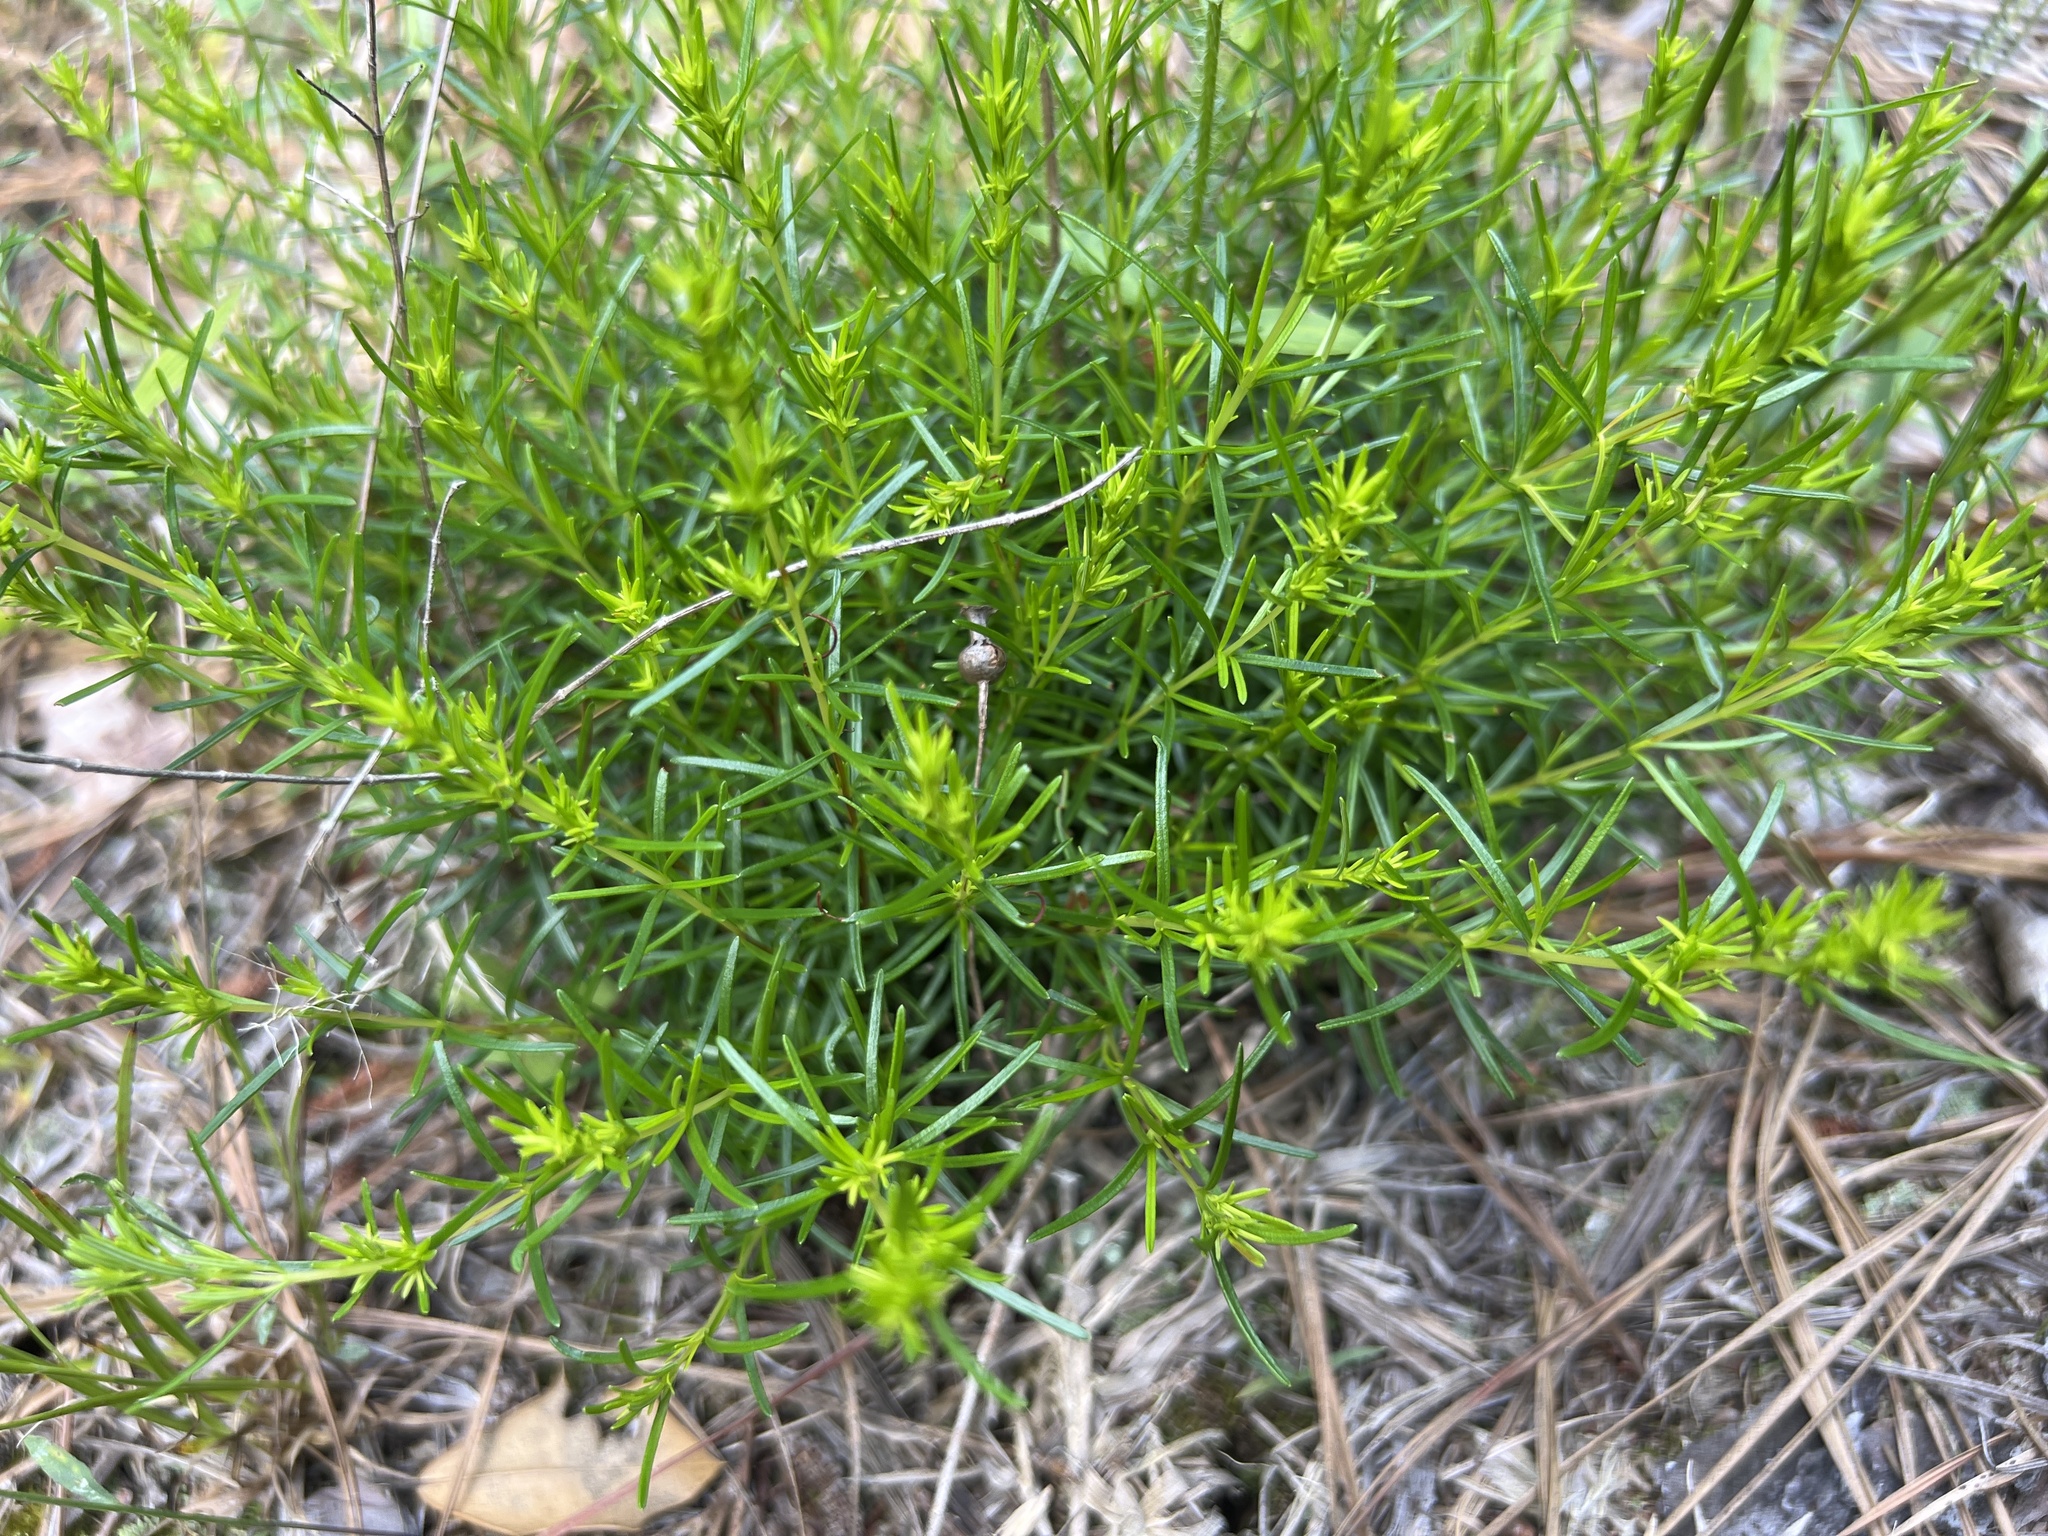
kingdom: Plantae
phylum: Tracheophyta
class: Magnoliopsida
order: Malpighiales
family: Hypericaceae
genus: Hypericum
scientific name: Hypericum lloydii
